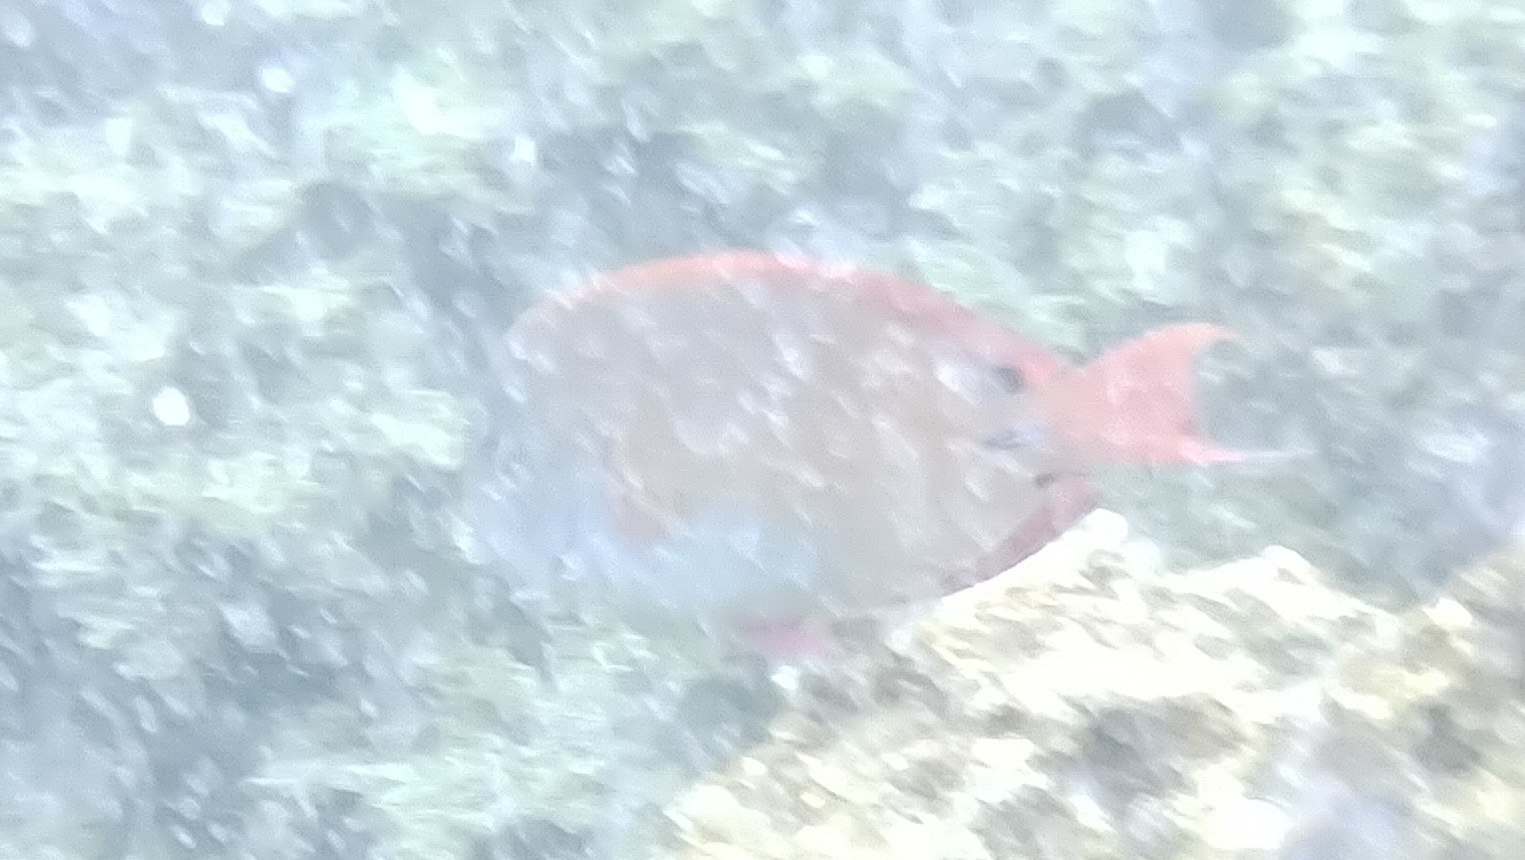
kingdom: Animalia
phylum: Chordata
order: Perciformes
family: Acanthuridae
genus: Acanthurus
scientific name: Acanthurus nigrofuscus
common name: Blackspot surgeonfish
